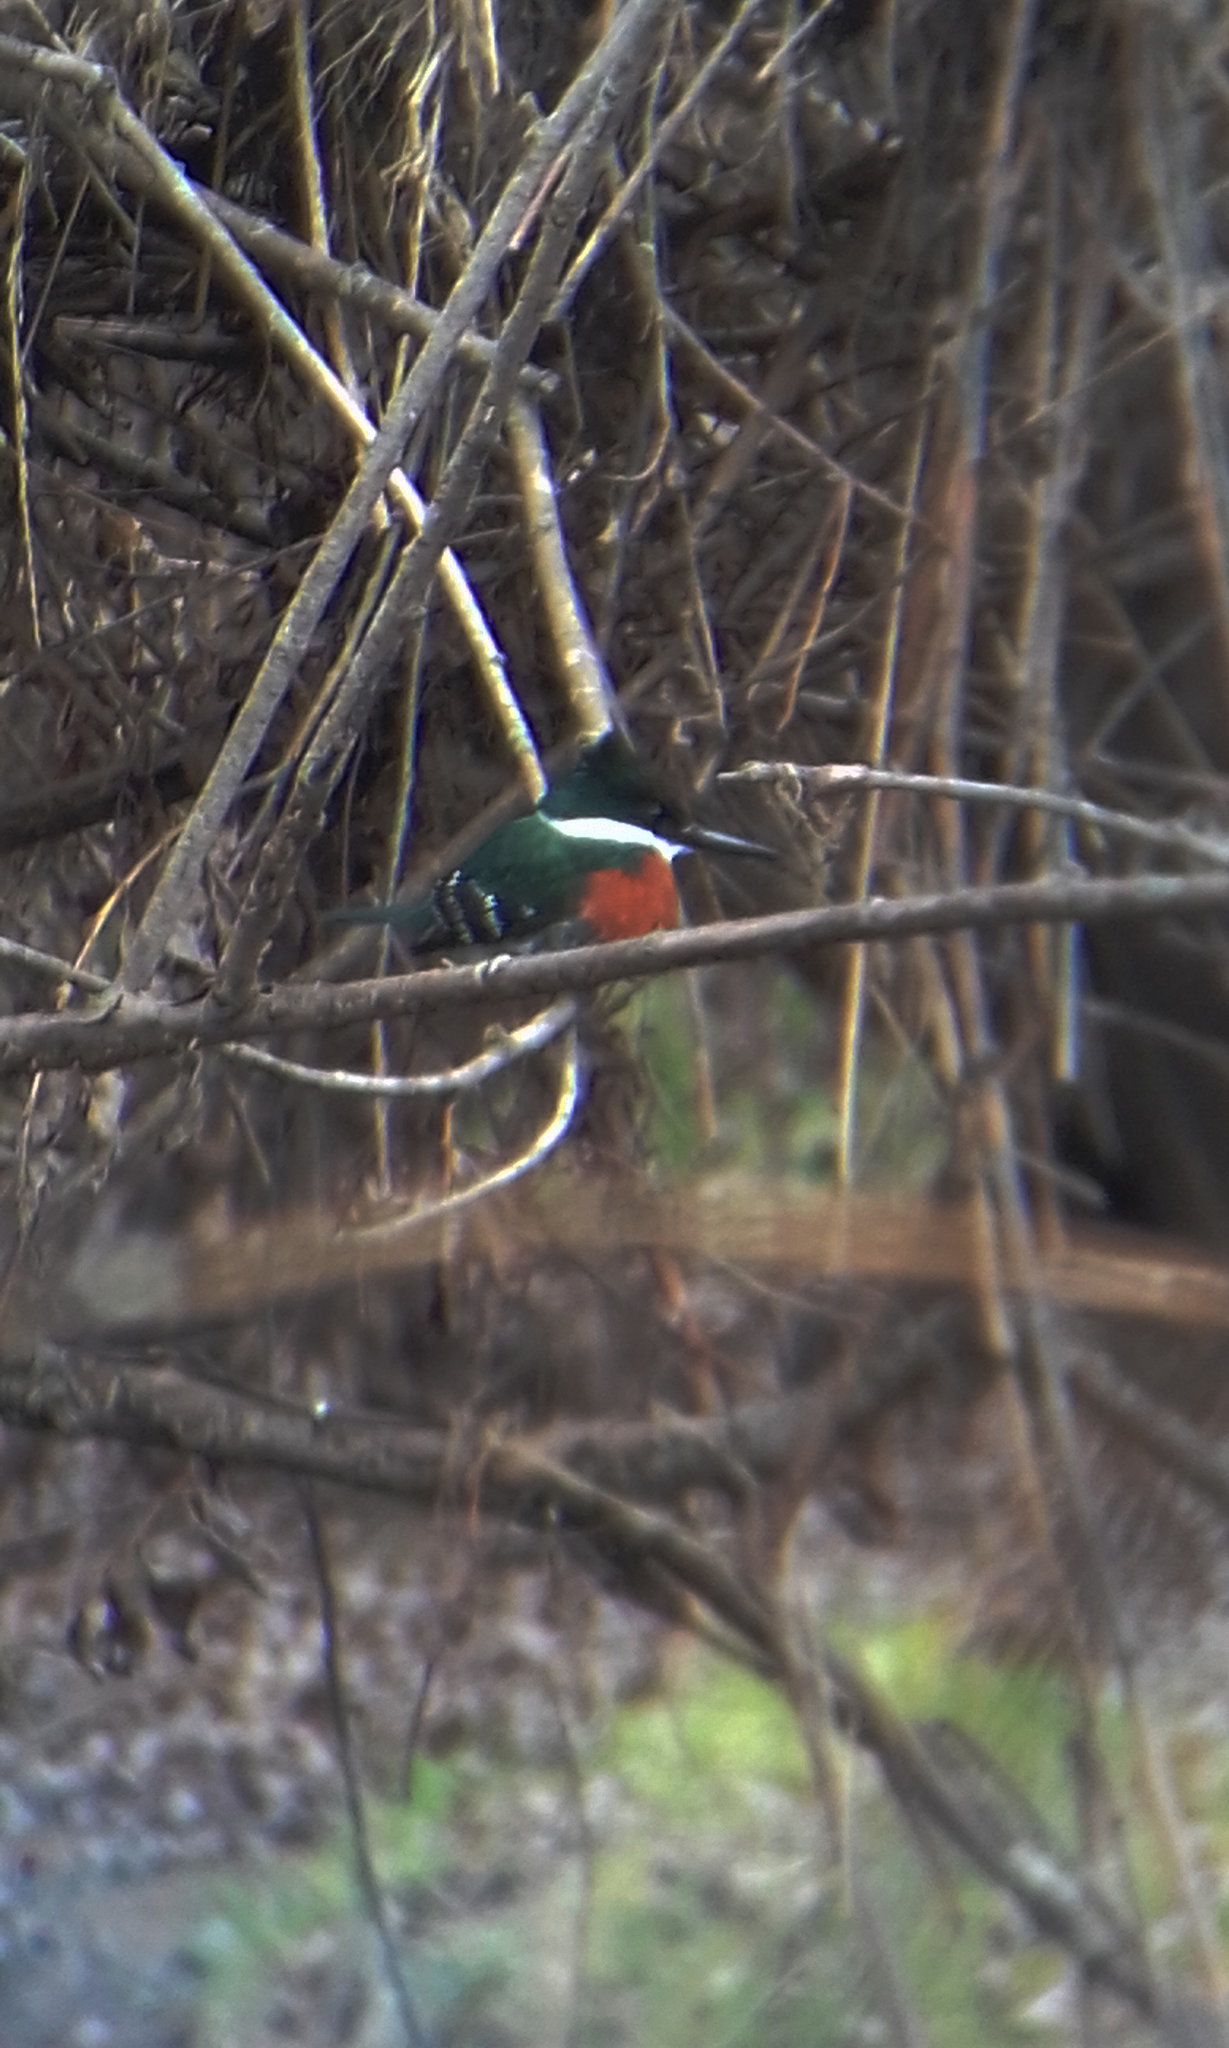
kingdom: Animalia
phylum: Chordata
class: Aves
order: Coraciiformes
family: Alcedinidae
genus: Chloroceryle
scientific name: Chloroceryle americana
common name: Green kingfisher
